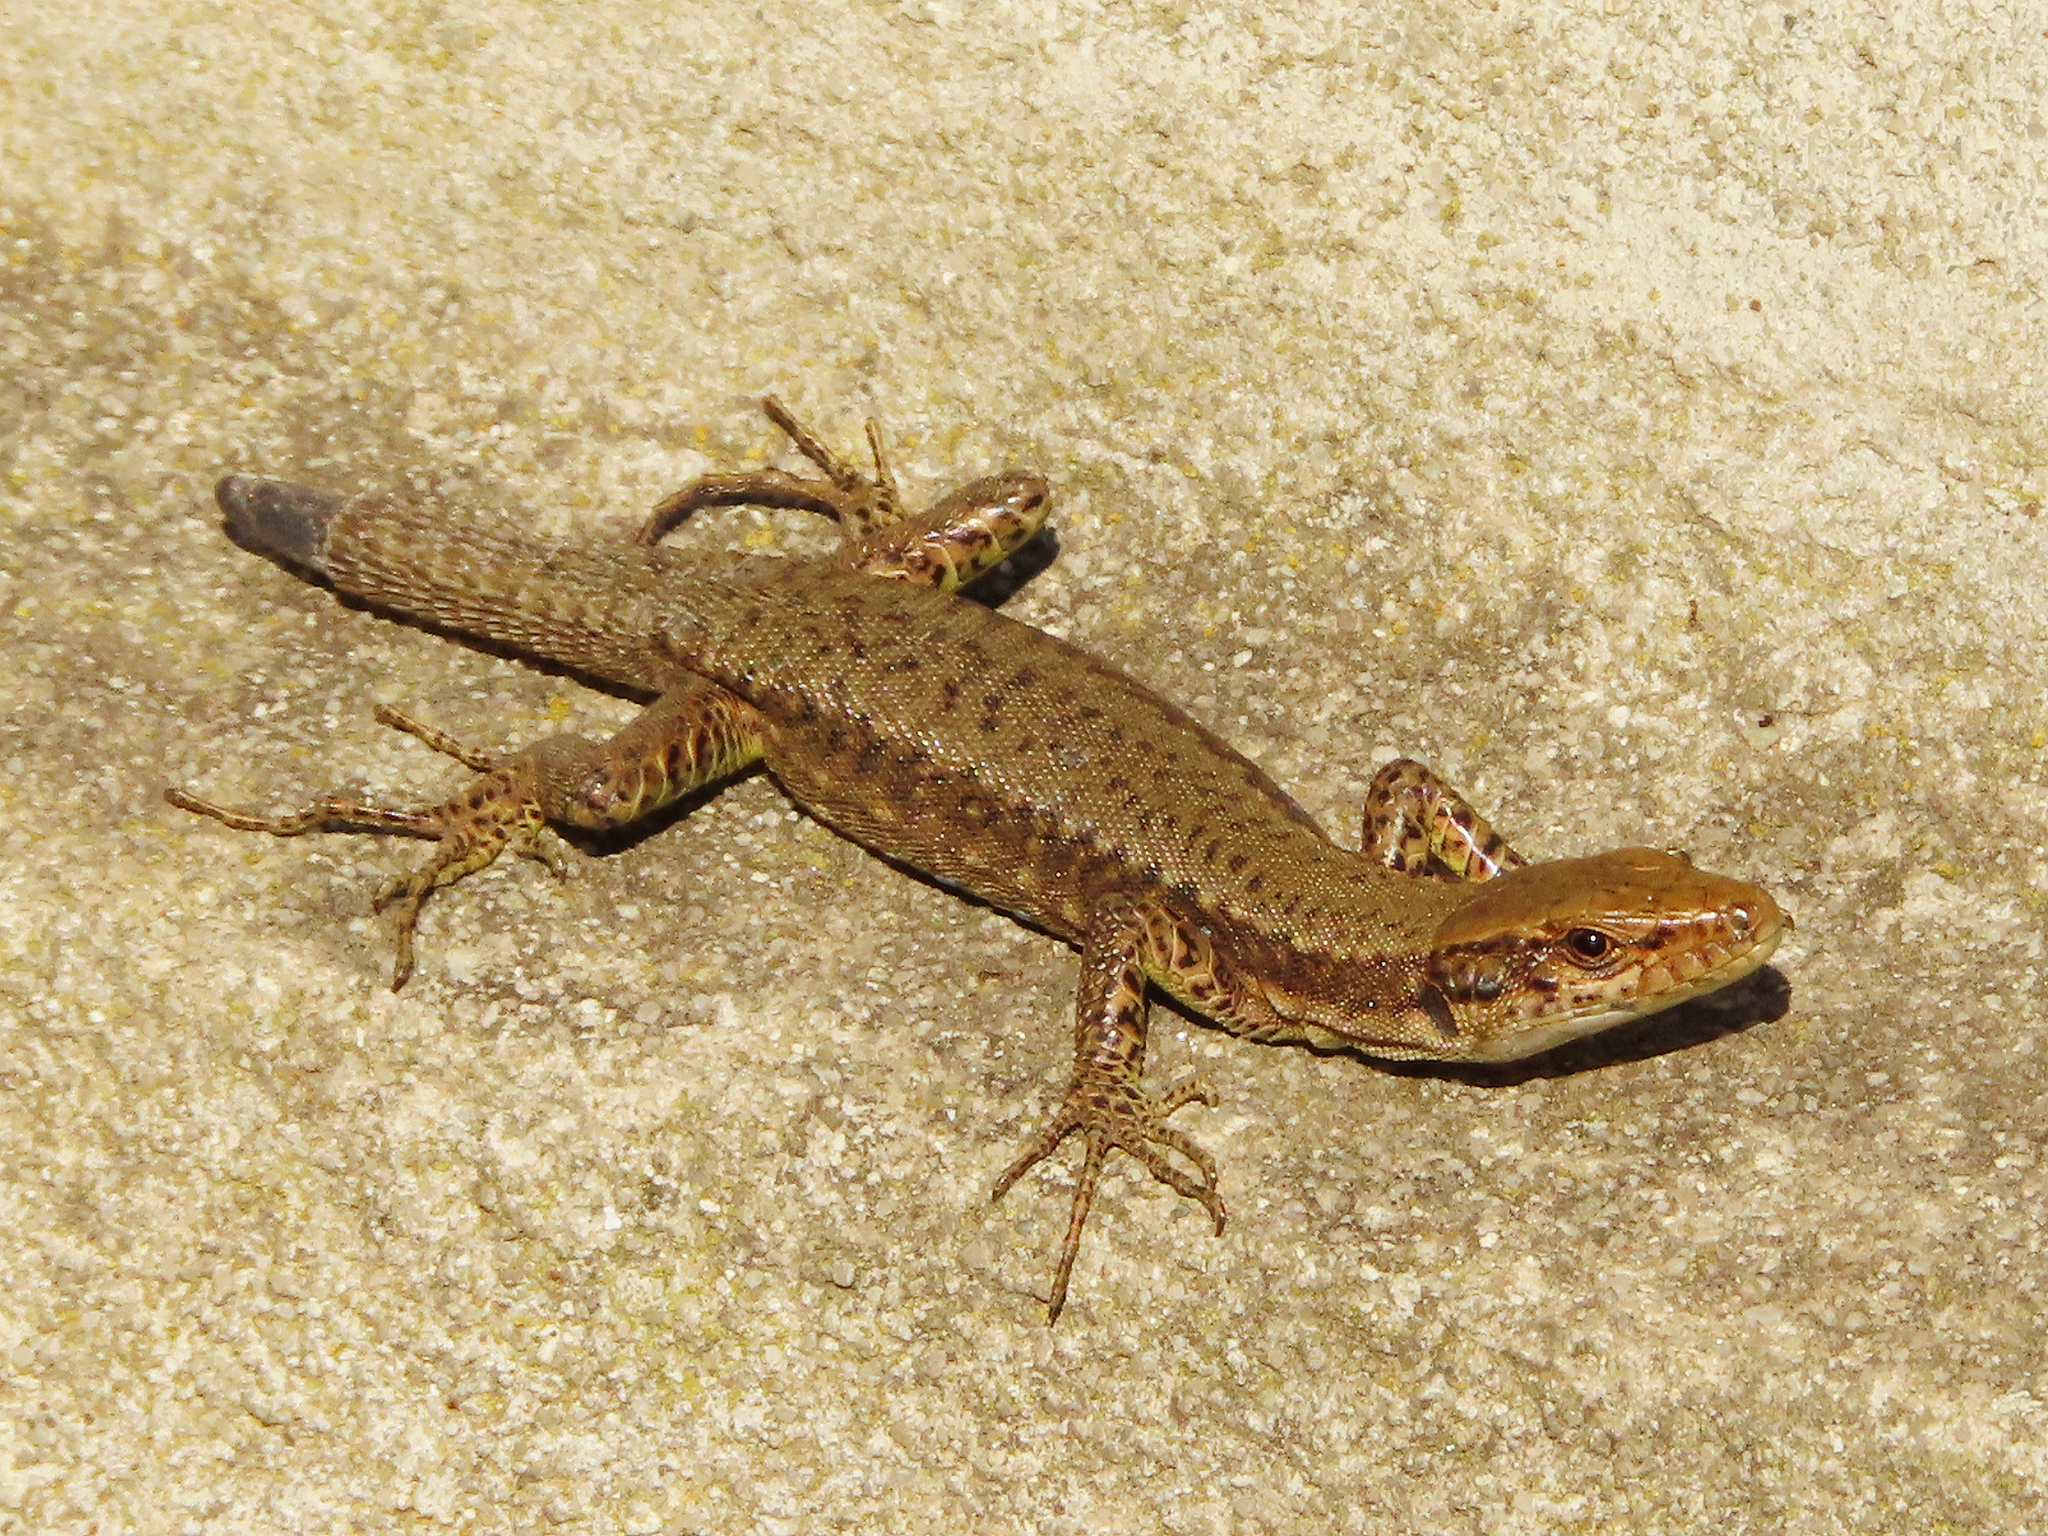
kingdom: Animalia
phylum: Chordata
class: Squamata
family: Lacertidae
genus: Darevskia
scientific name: Darevskia mixta
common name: Ajarian lizard
